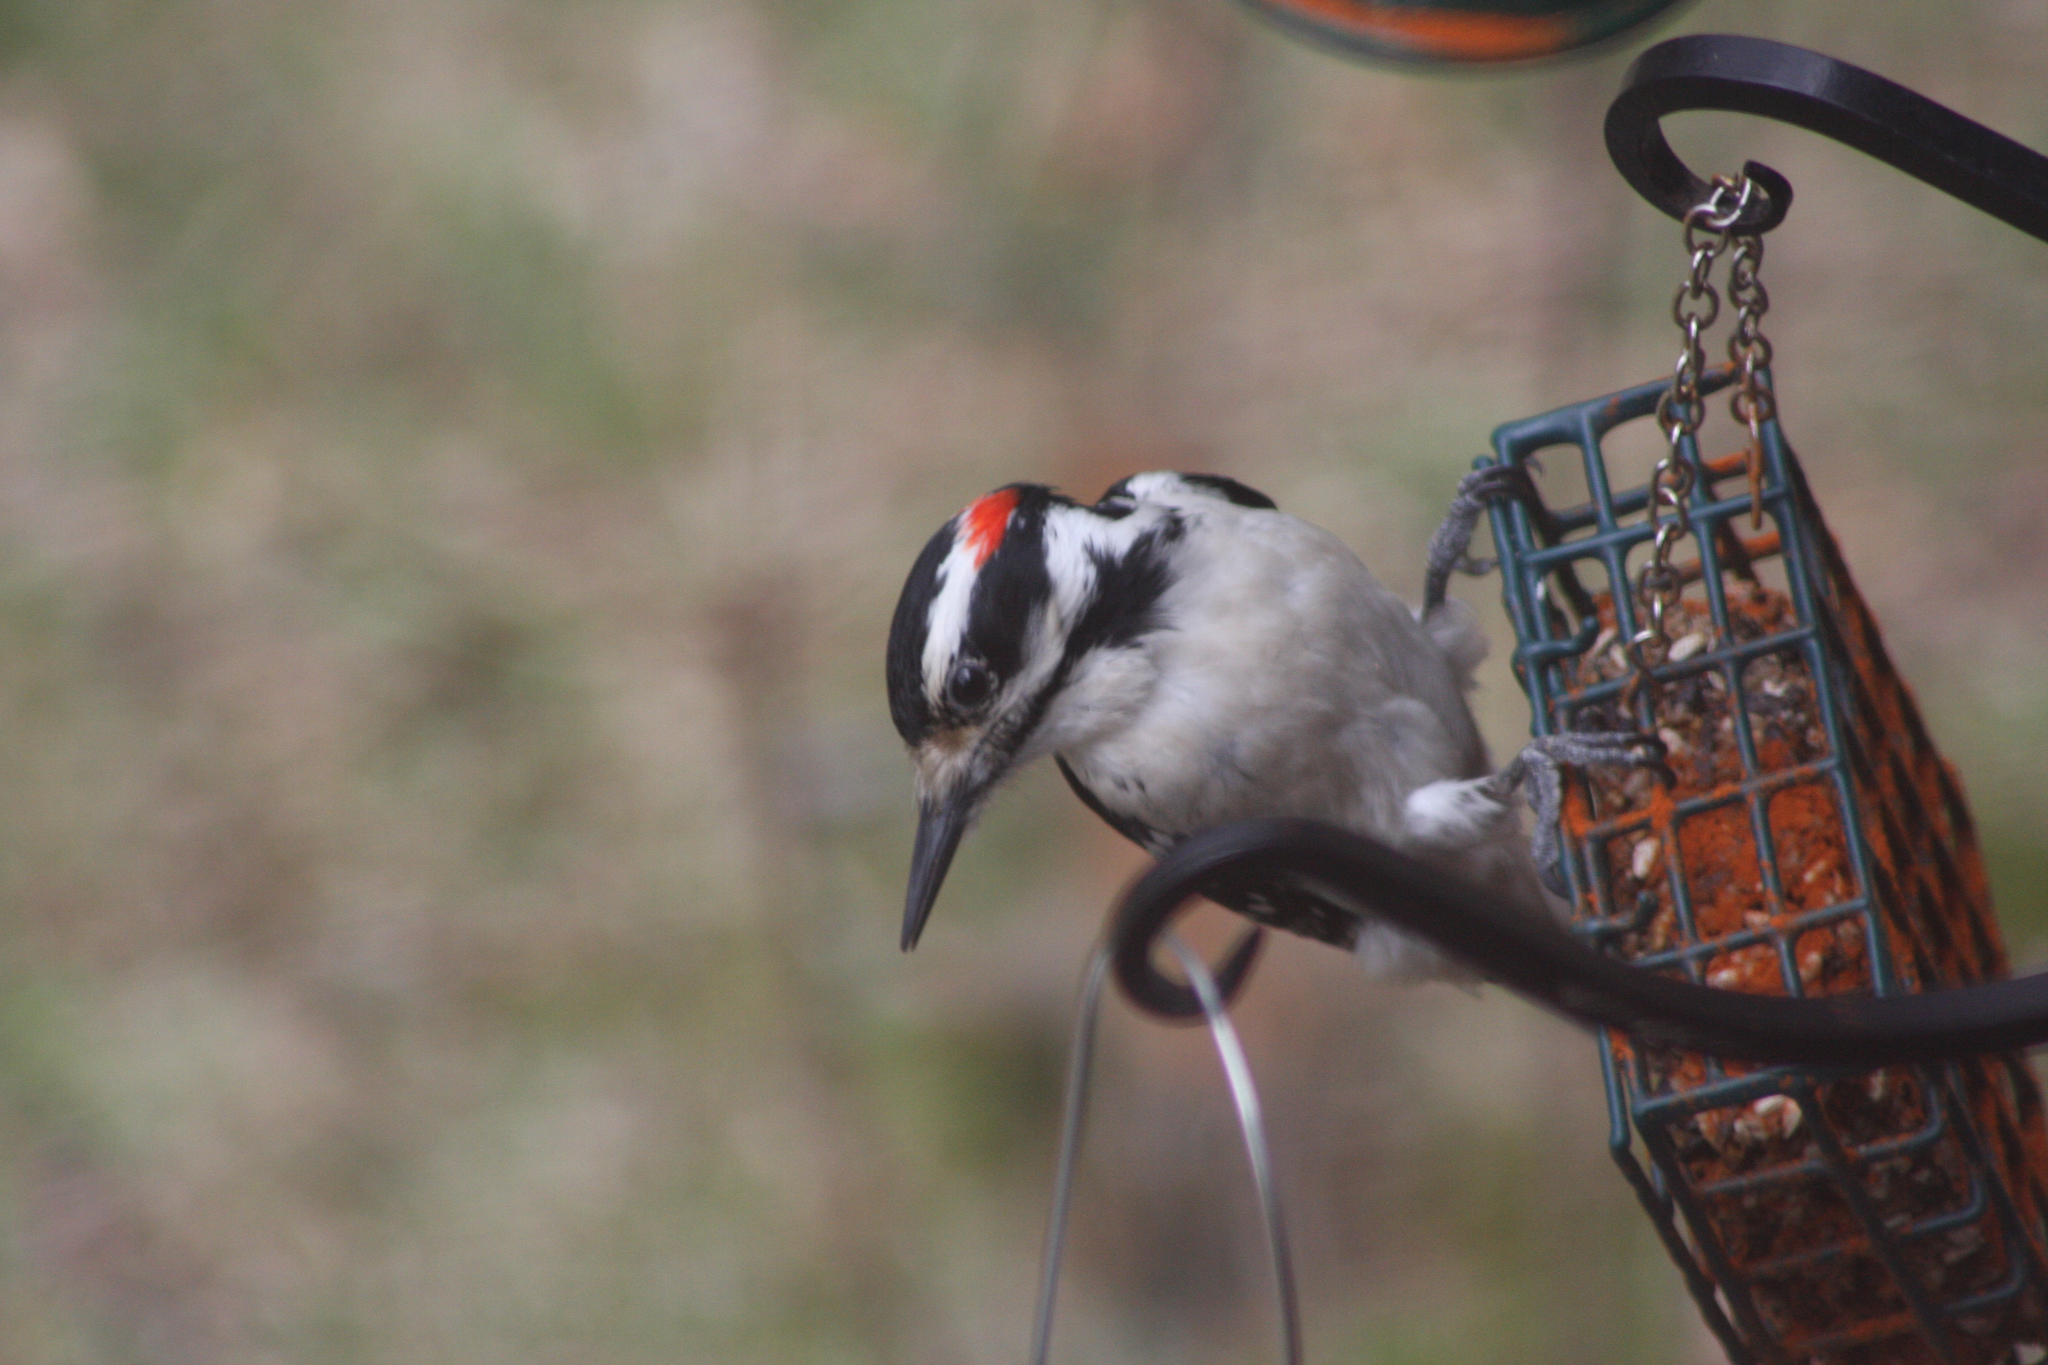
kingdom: Animalia
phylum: Chordata
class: Aves
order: Piciformes
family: Picidae
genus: Leuconotopicus
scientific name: Leuconotopicus villosus
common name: Hairy woodpecker
